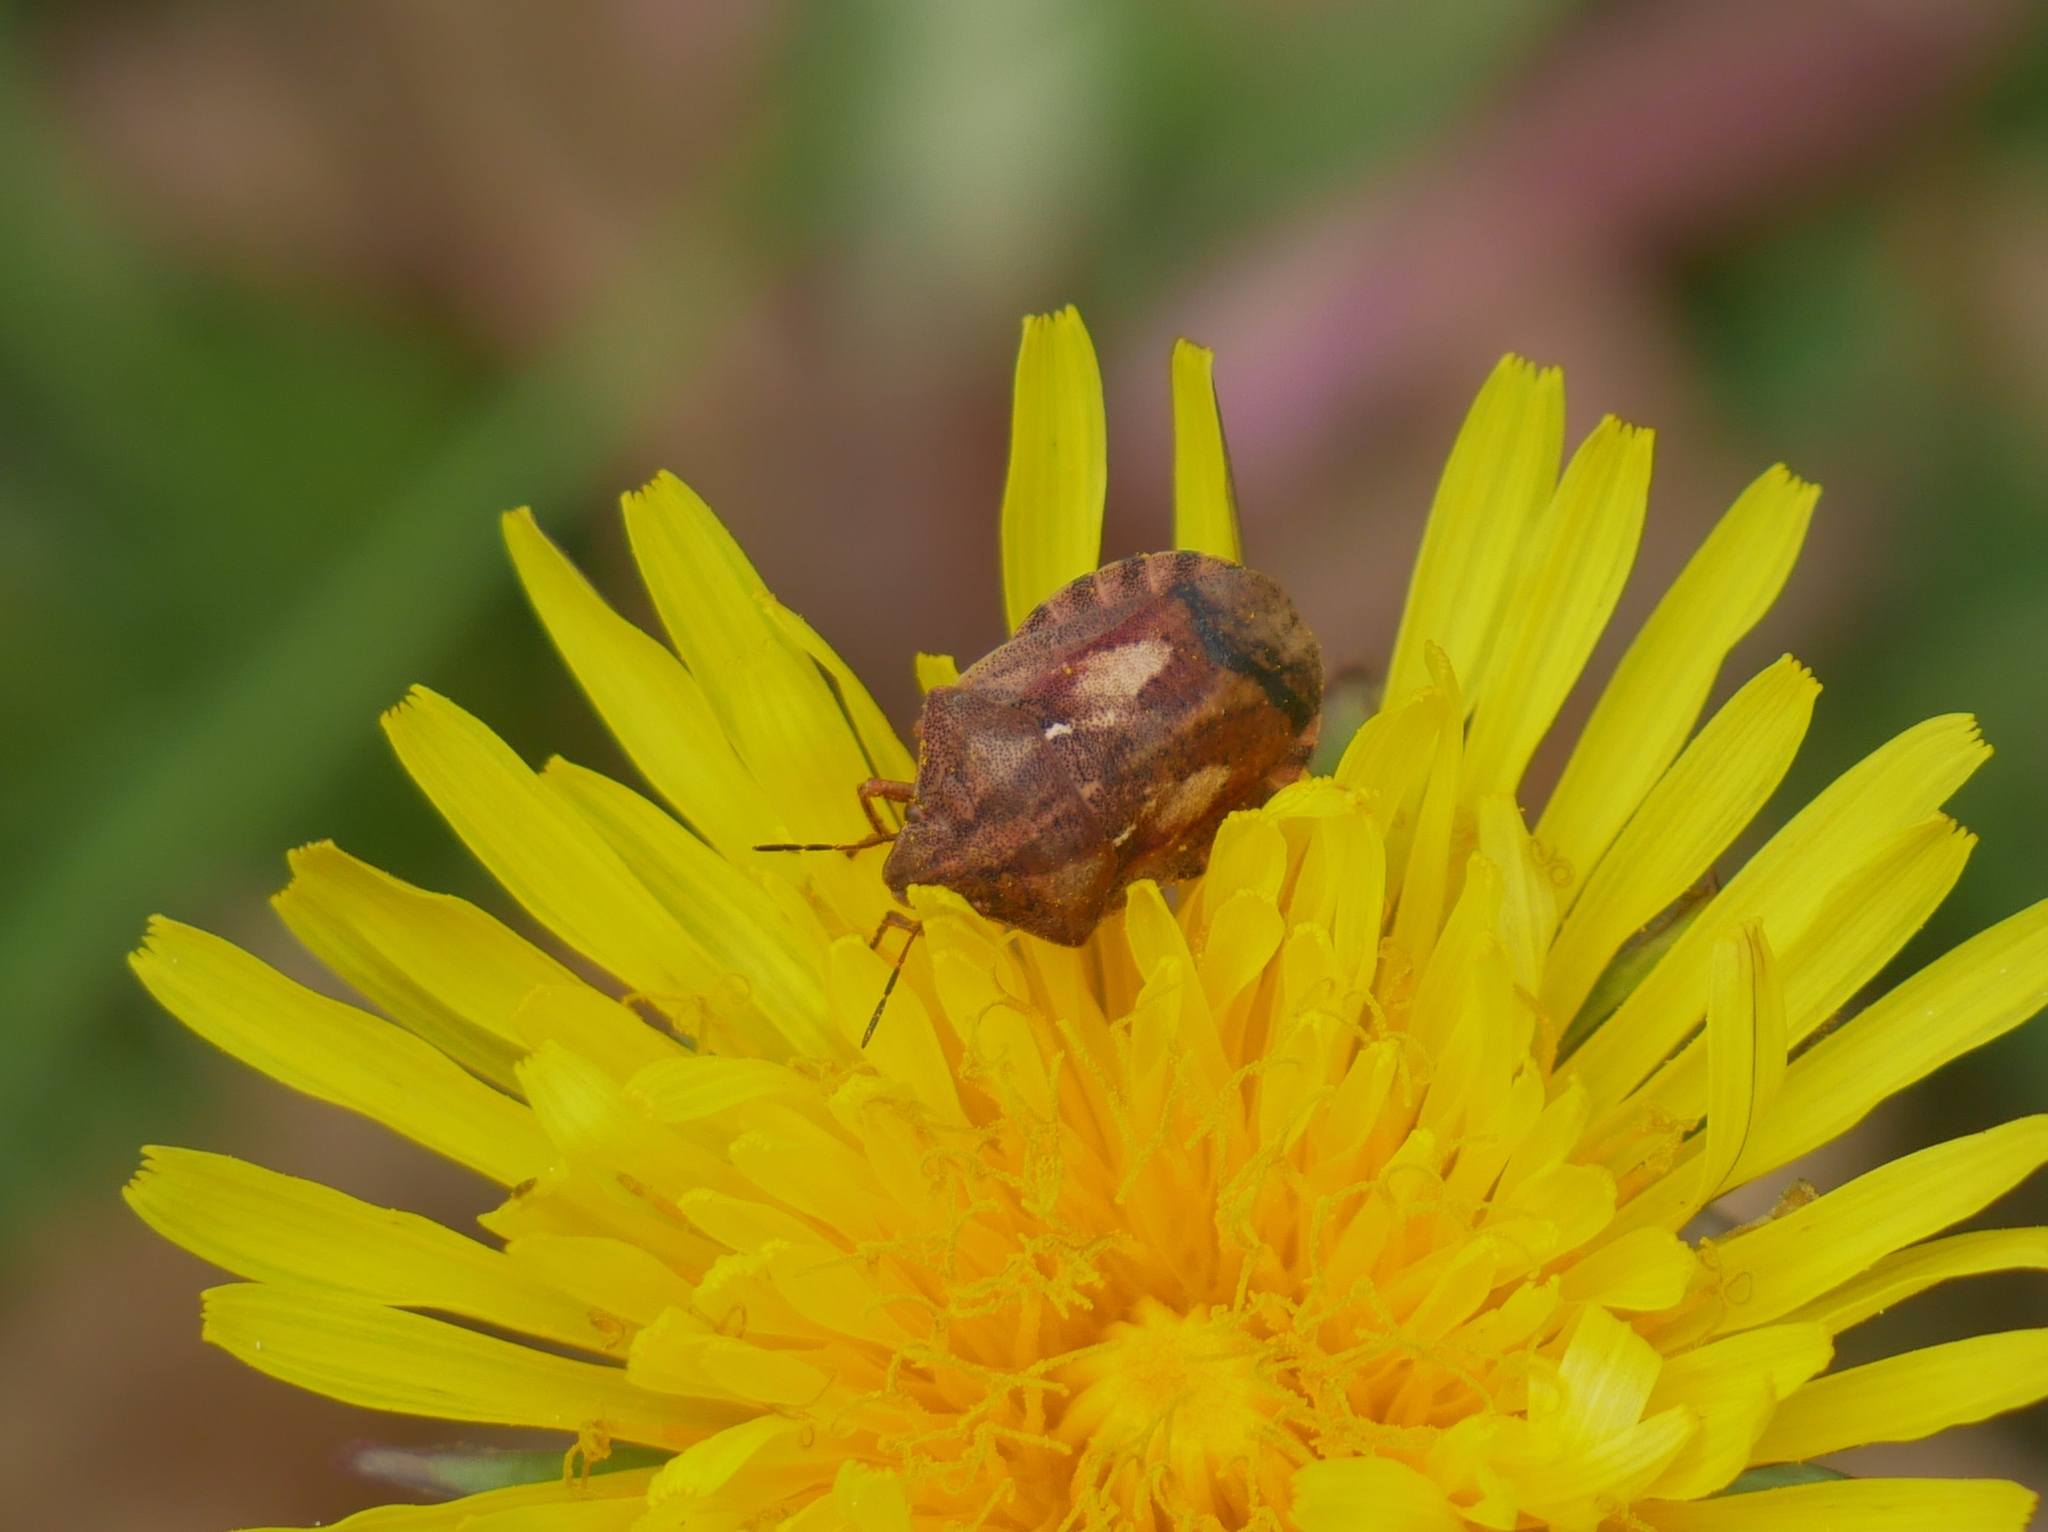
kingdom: Animalia
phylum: Arthropoda
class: Insecta
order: Hemiptera
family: Scutelleridae
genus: Eurygaster
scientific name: Eurygaster testudinaria
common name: Tortoise bug
